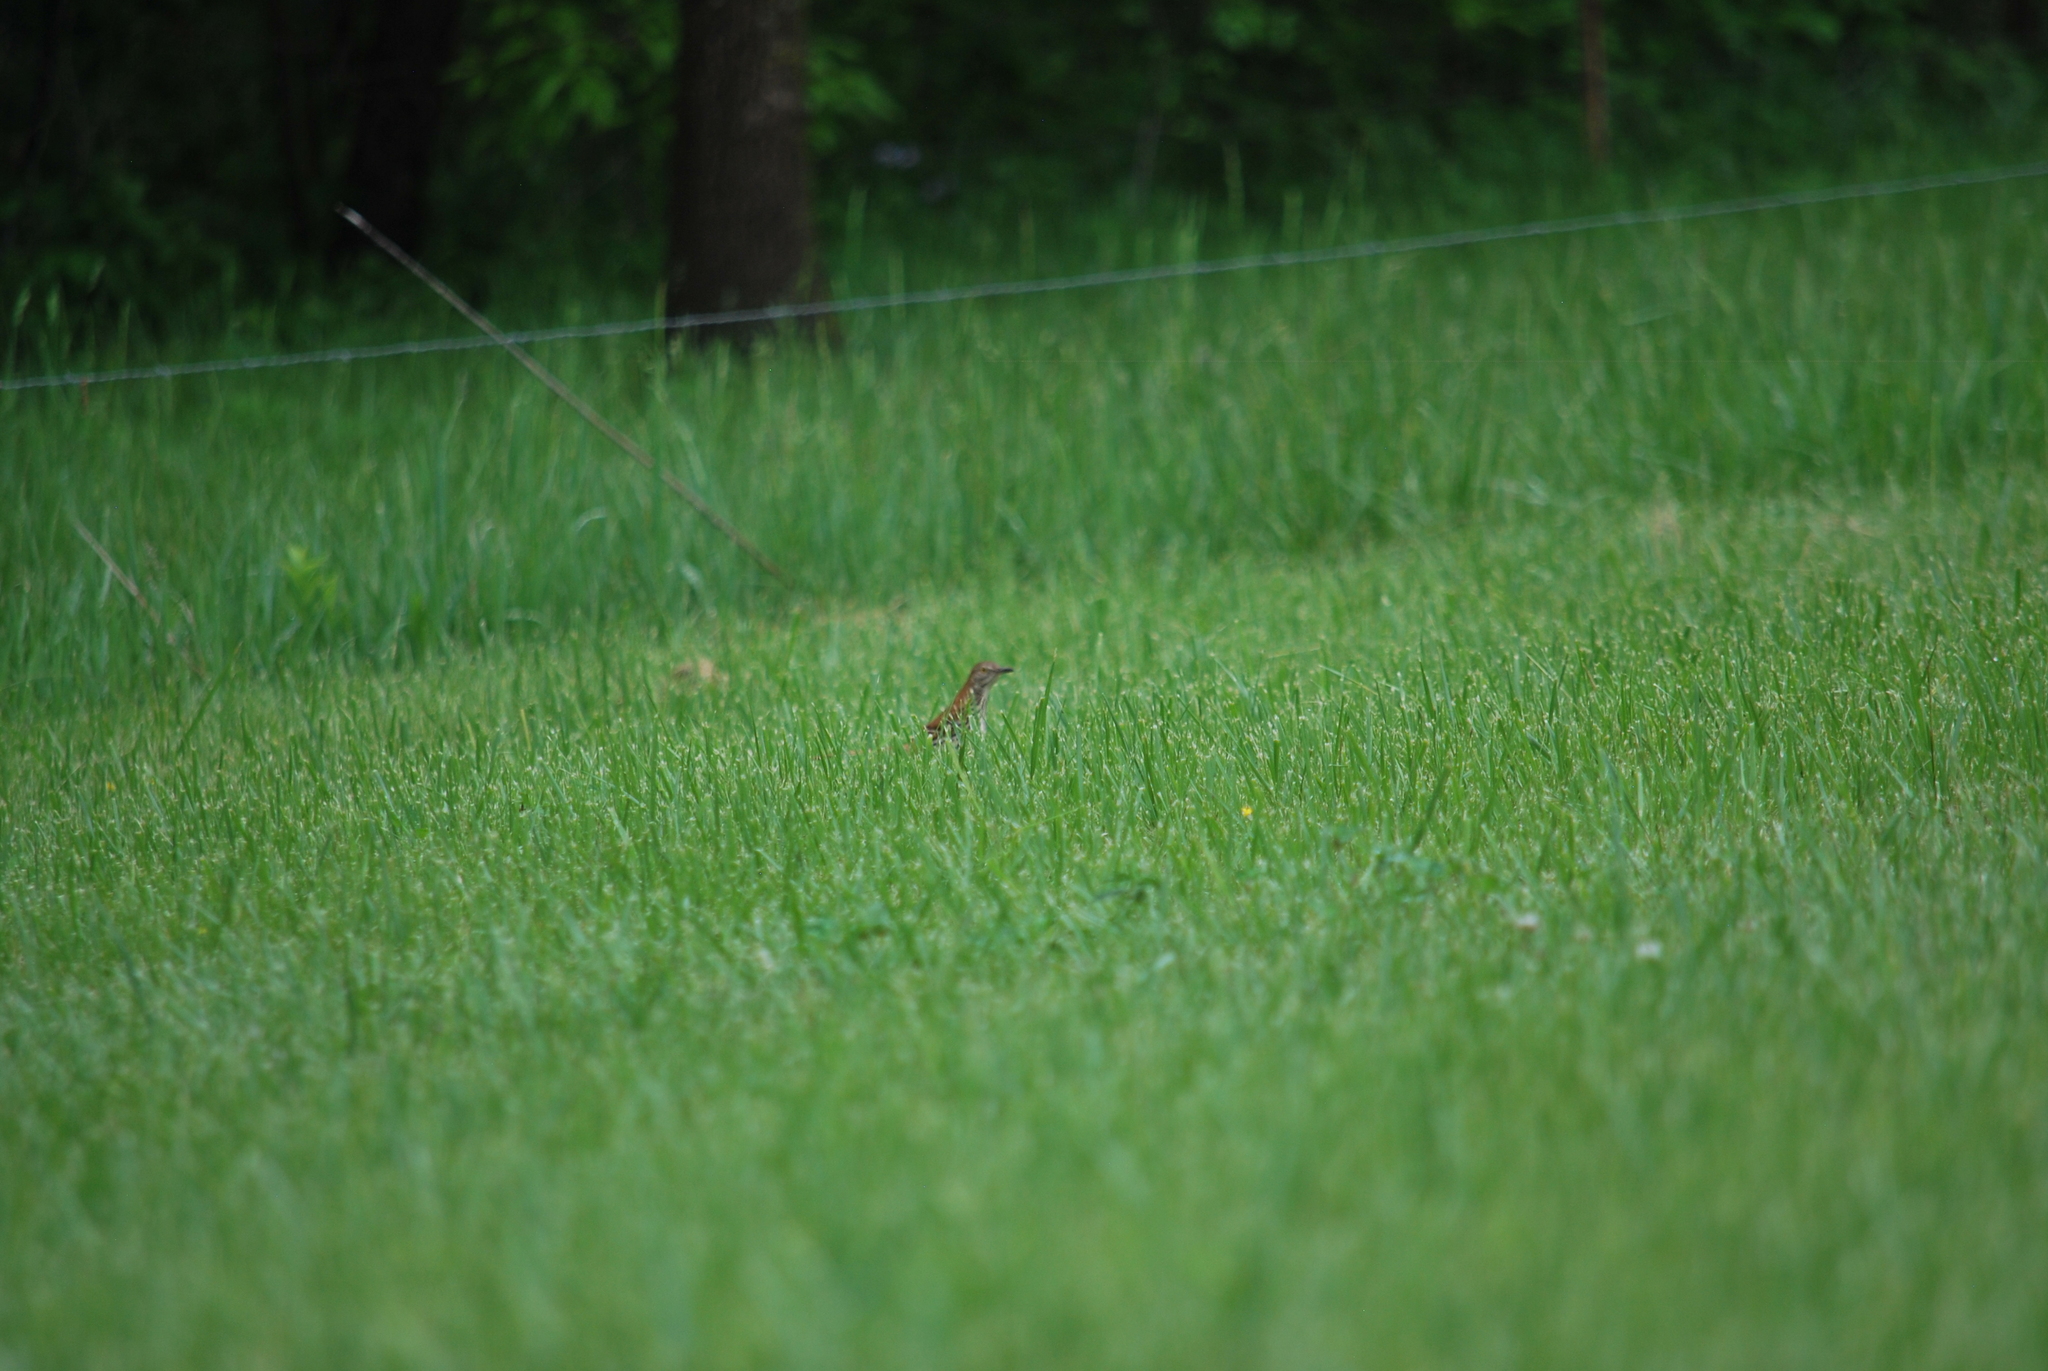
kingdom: Animalia
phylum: Chordata
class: Aves
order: Passeriformes
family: Mimidae
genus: Toxostoma
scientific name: Toxostoma rufum
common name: Brown thrasher
